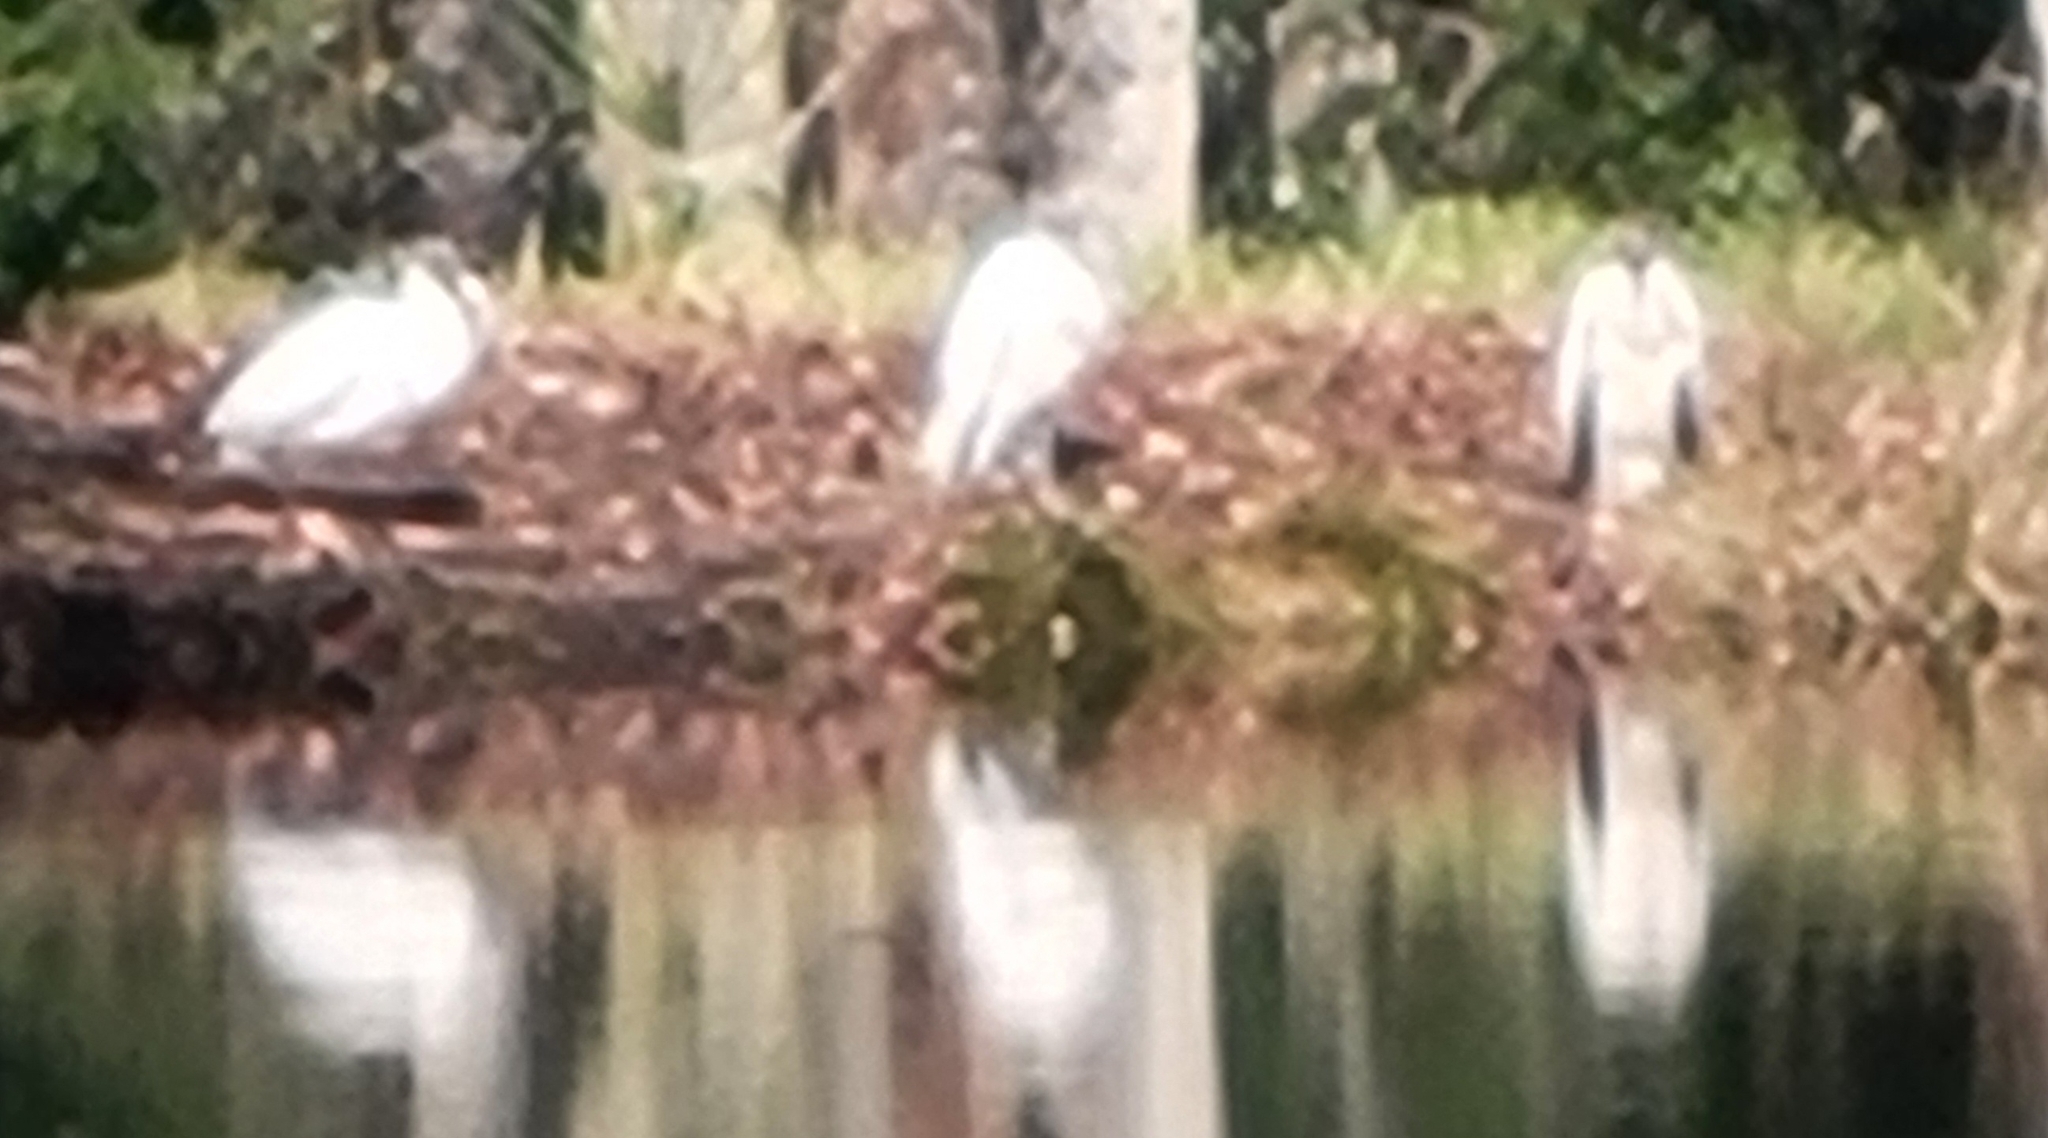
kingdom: Animalia
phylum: Chordata
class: Aves
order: Ciconiiformes
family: Ciconiidae
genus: Mycteria
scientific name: Mycteria americana
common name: Wood stork
